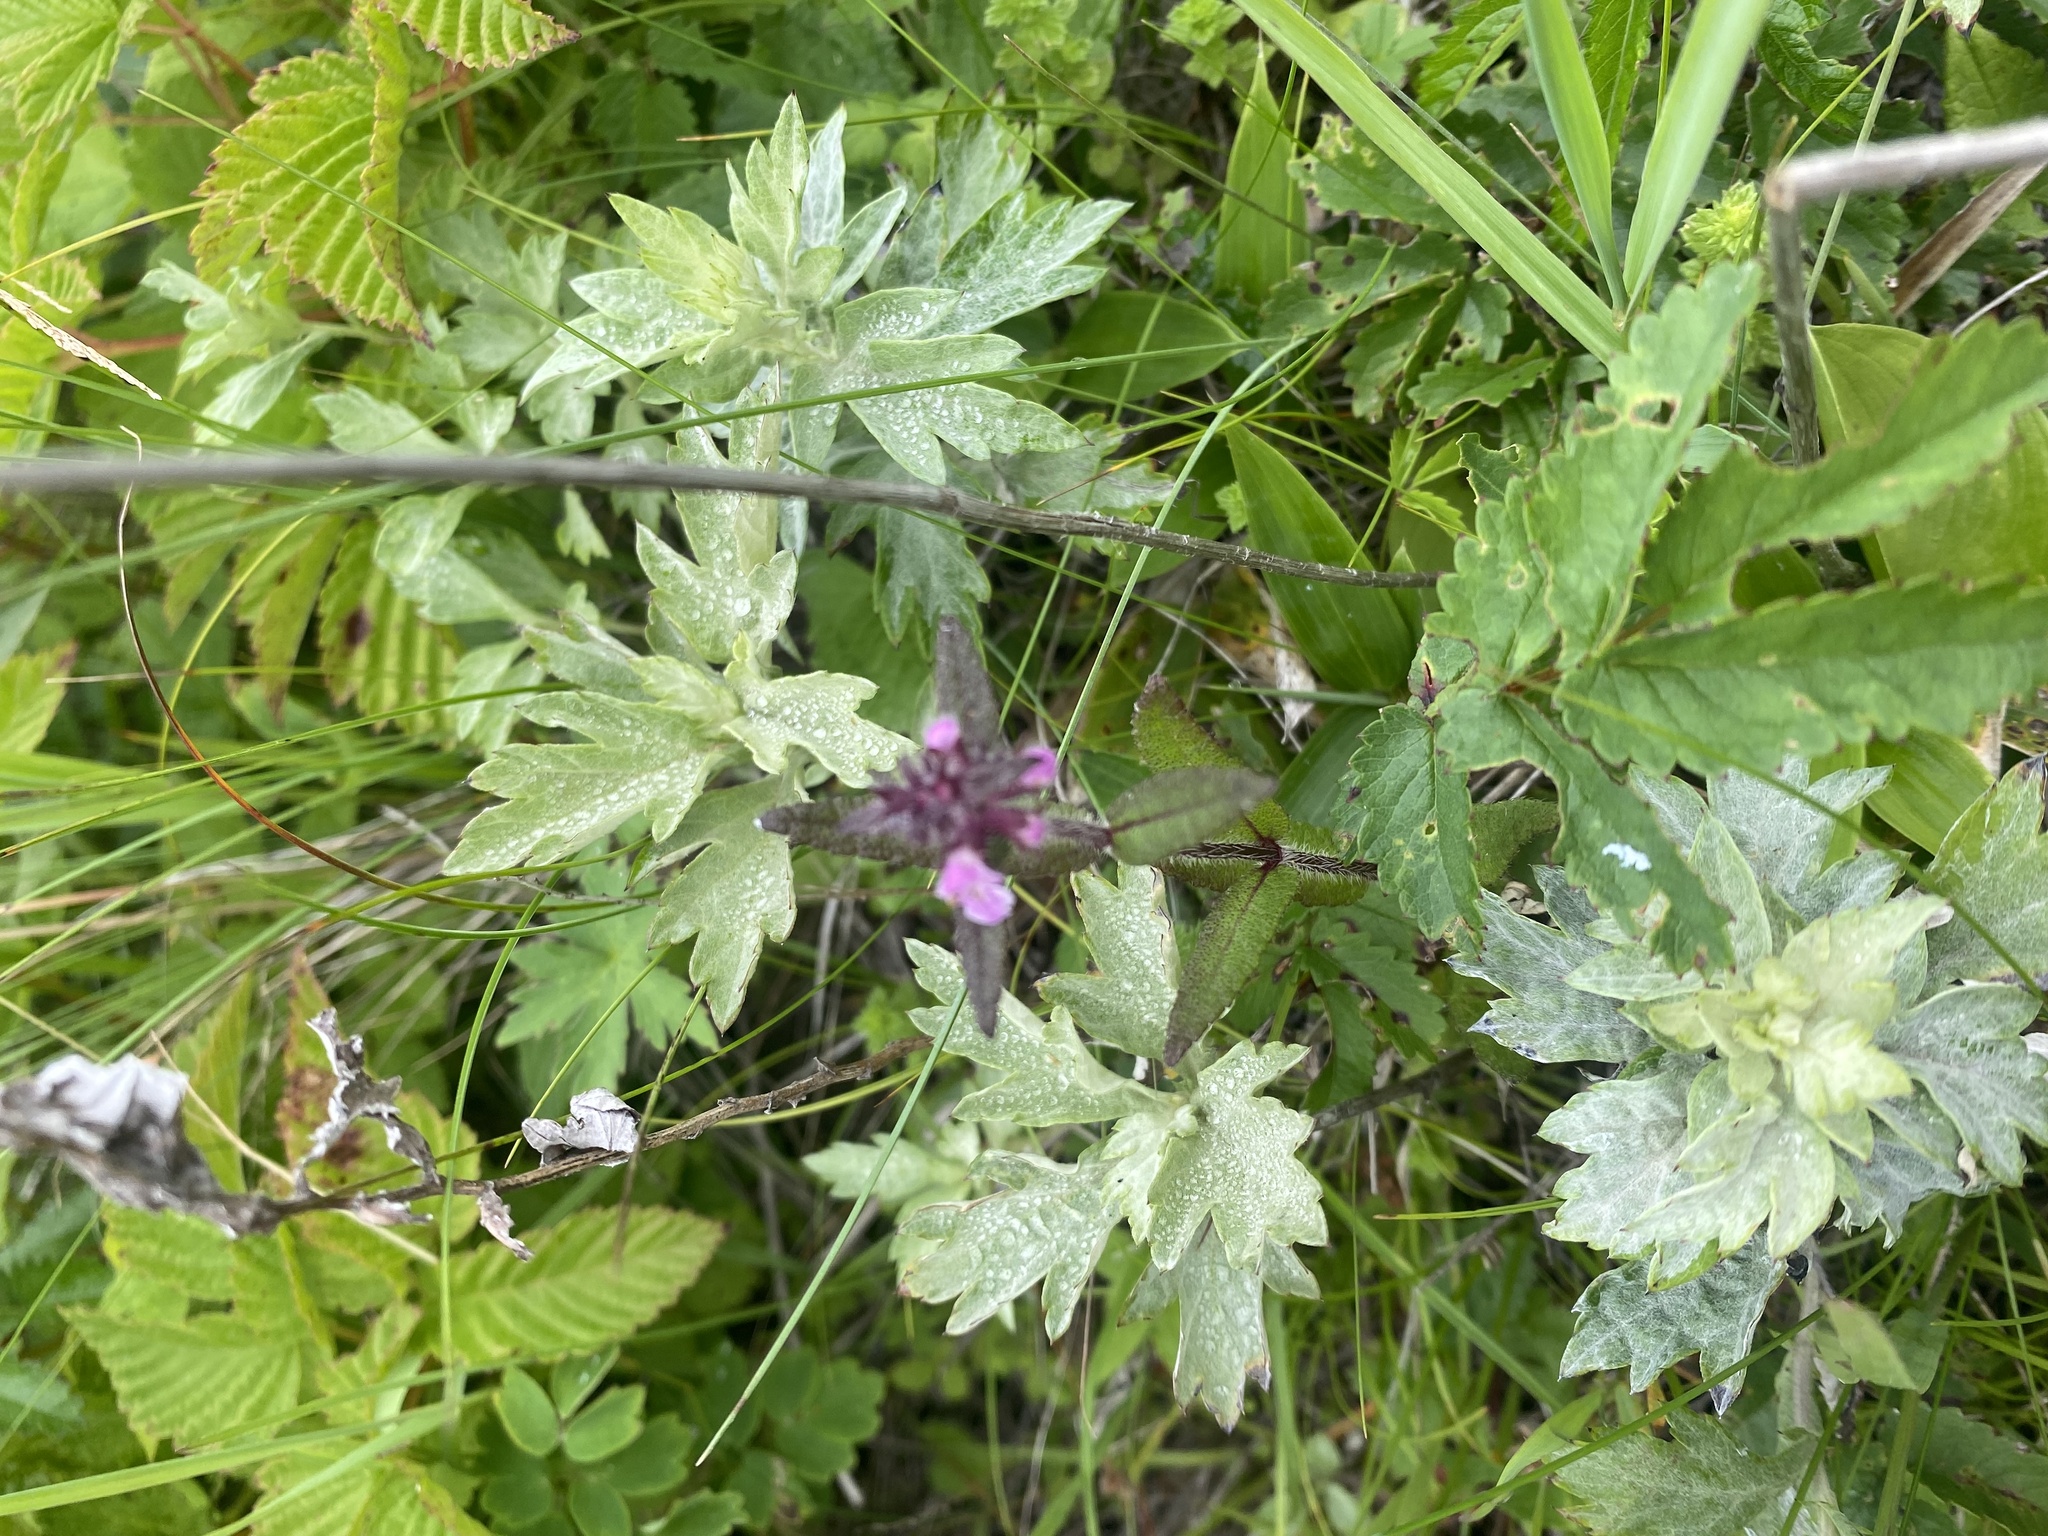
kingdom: Plantae
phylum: Tracheophyta
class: Magnoliopsida
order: Lamiales
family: Lamiaceae
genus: Stachys
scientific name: Stachys aspera
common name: Hyssopleaf hedgenettle
